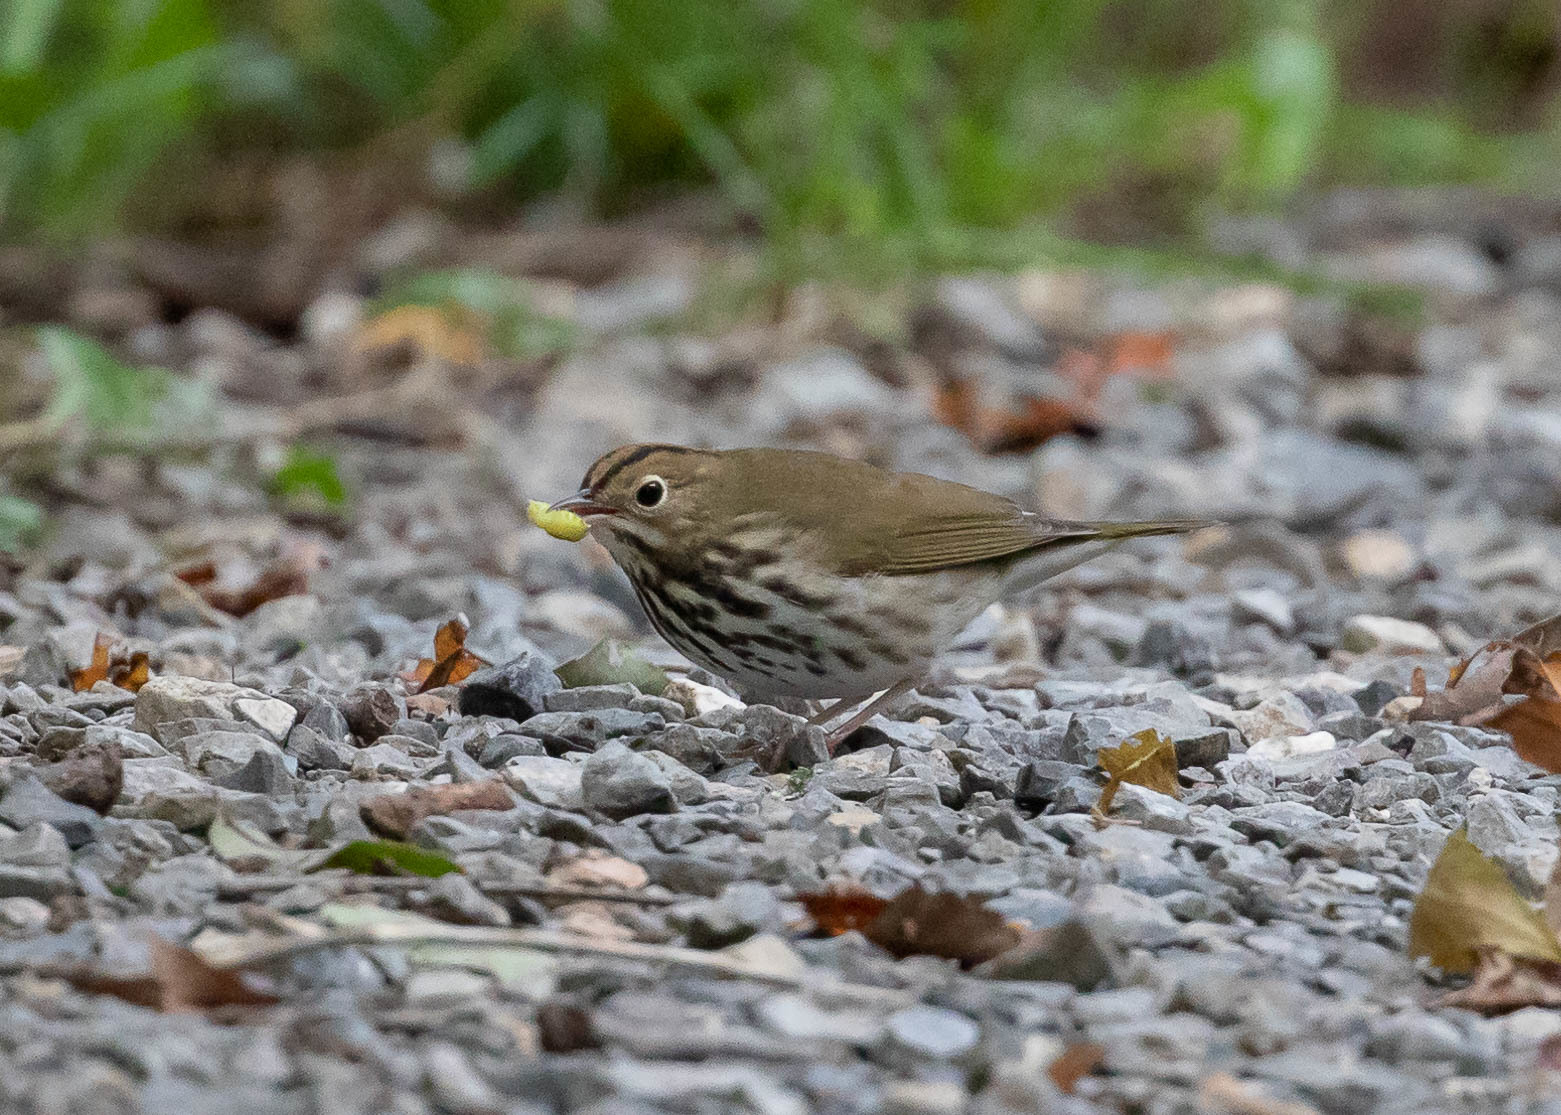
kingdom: Animalia
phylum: Chordata
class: Aves
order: Passeriformes
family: Parulidae
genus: Seiurus
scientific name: Seiurus aurocapilla
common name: Ovenbird
